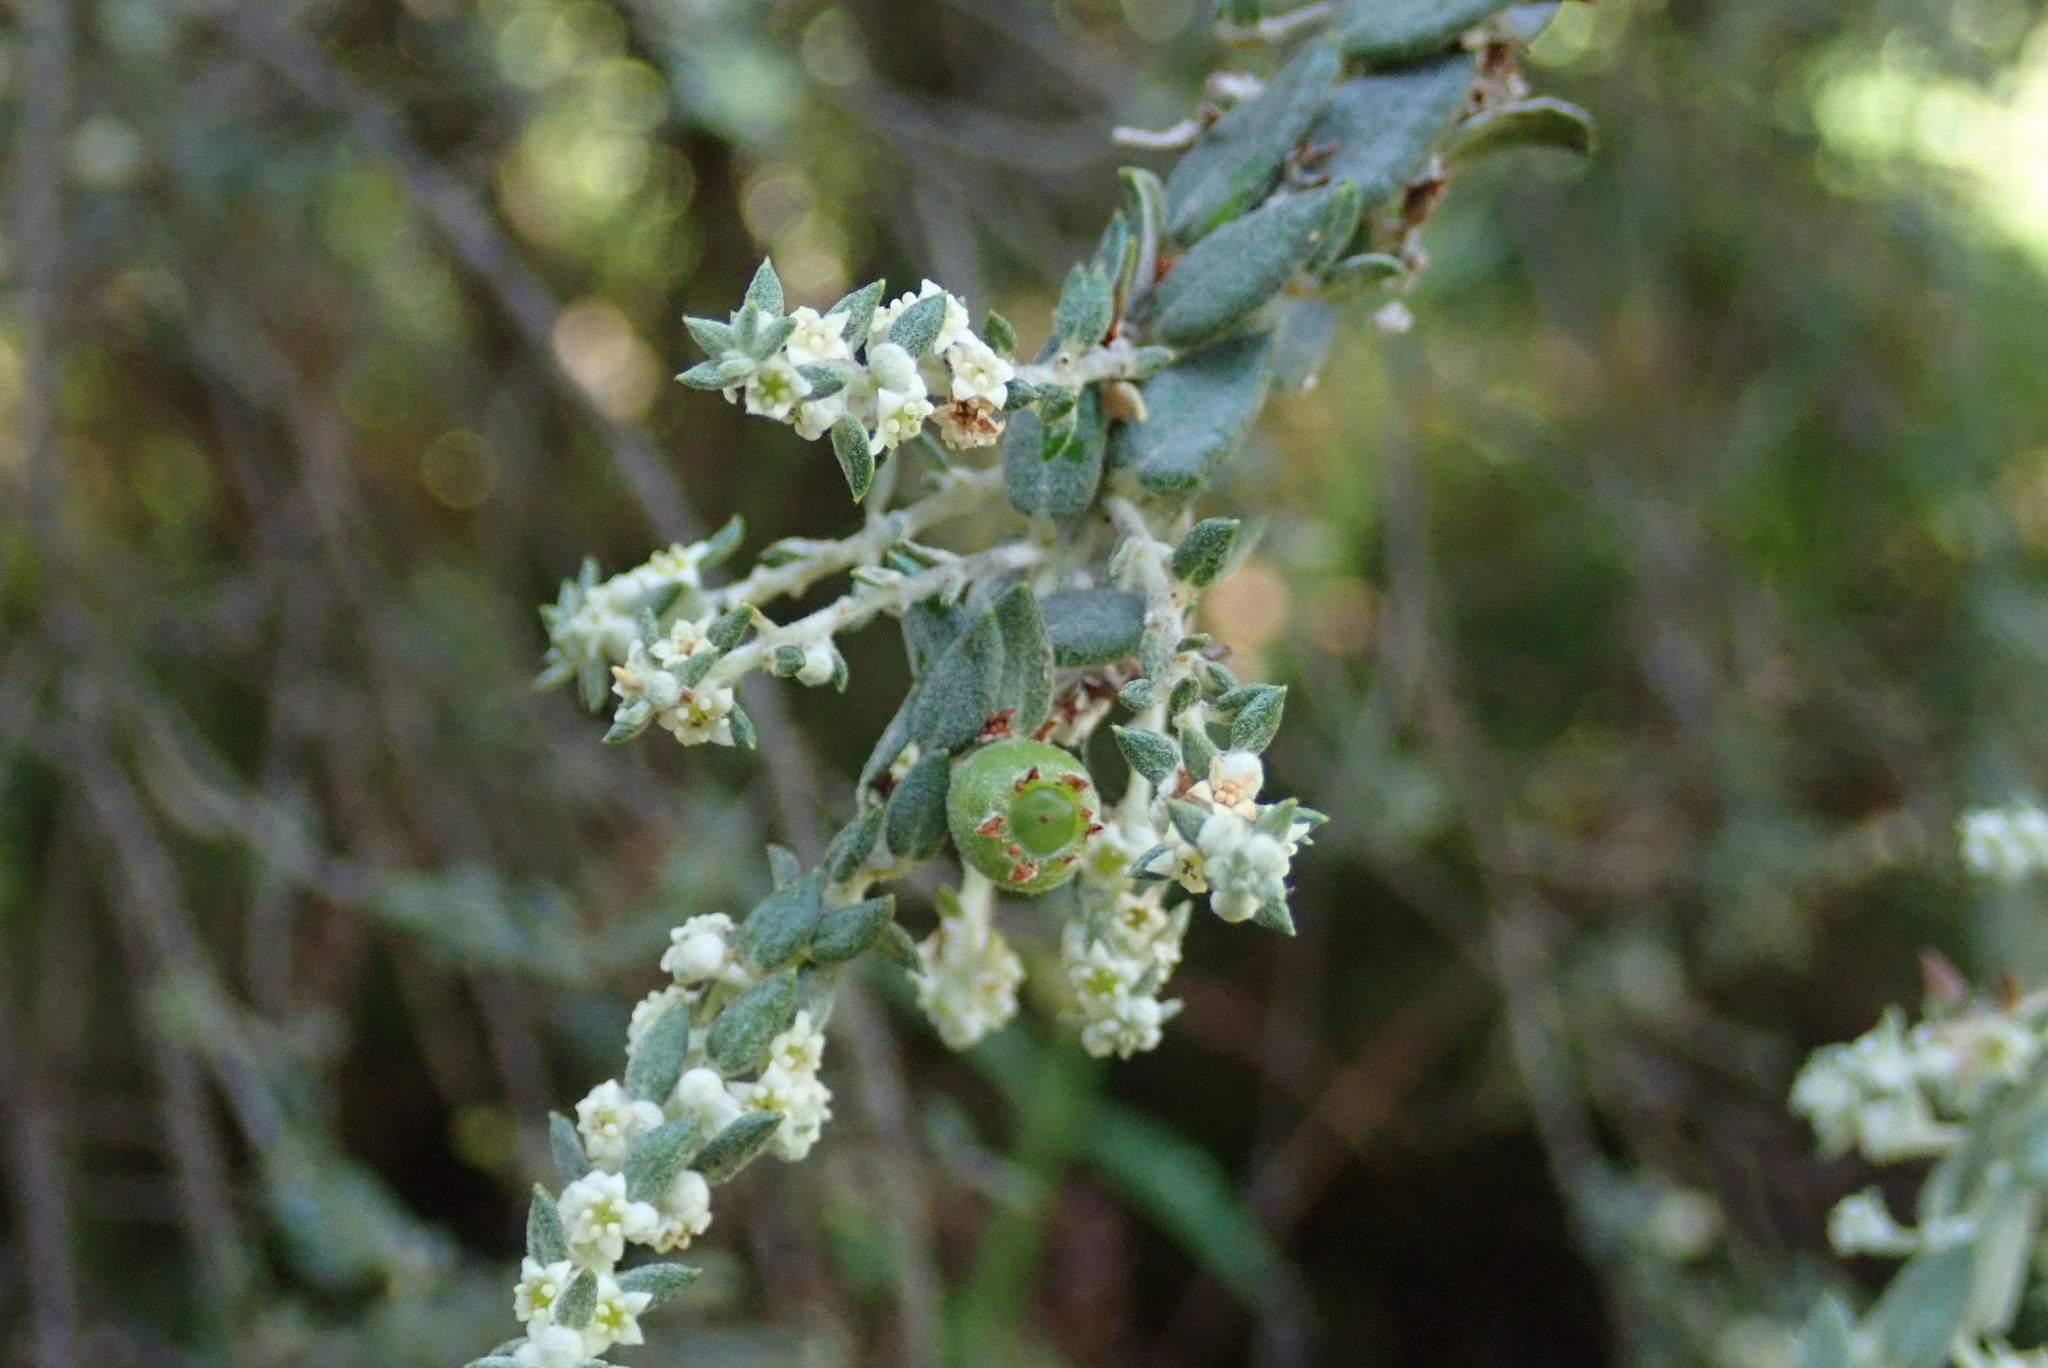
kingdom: Plantae
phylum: Tracheophyta
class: Magnoliopsida
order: Rosales
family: Rhamnaceae
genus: Phylica
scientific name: Phylica paniculata
